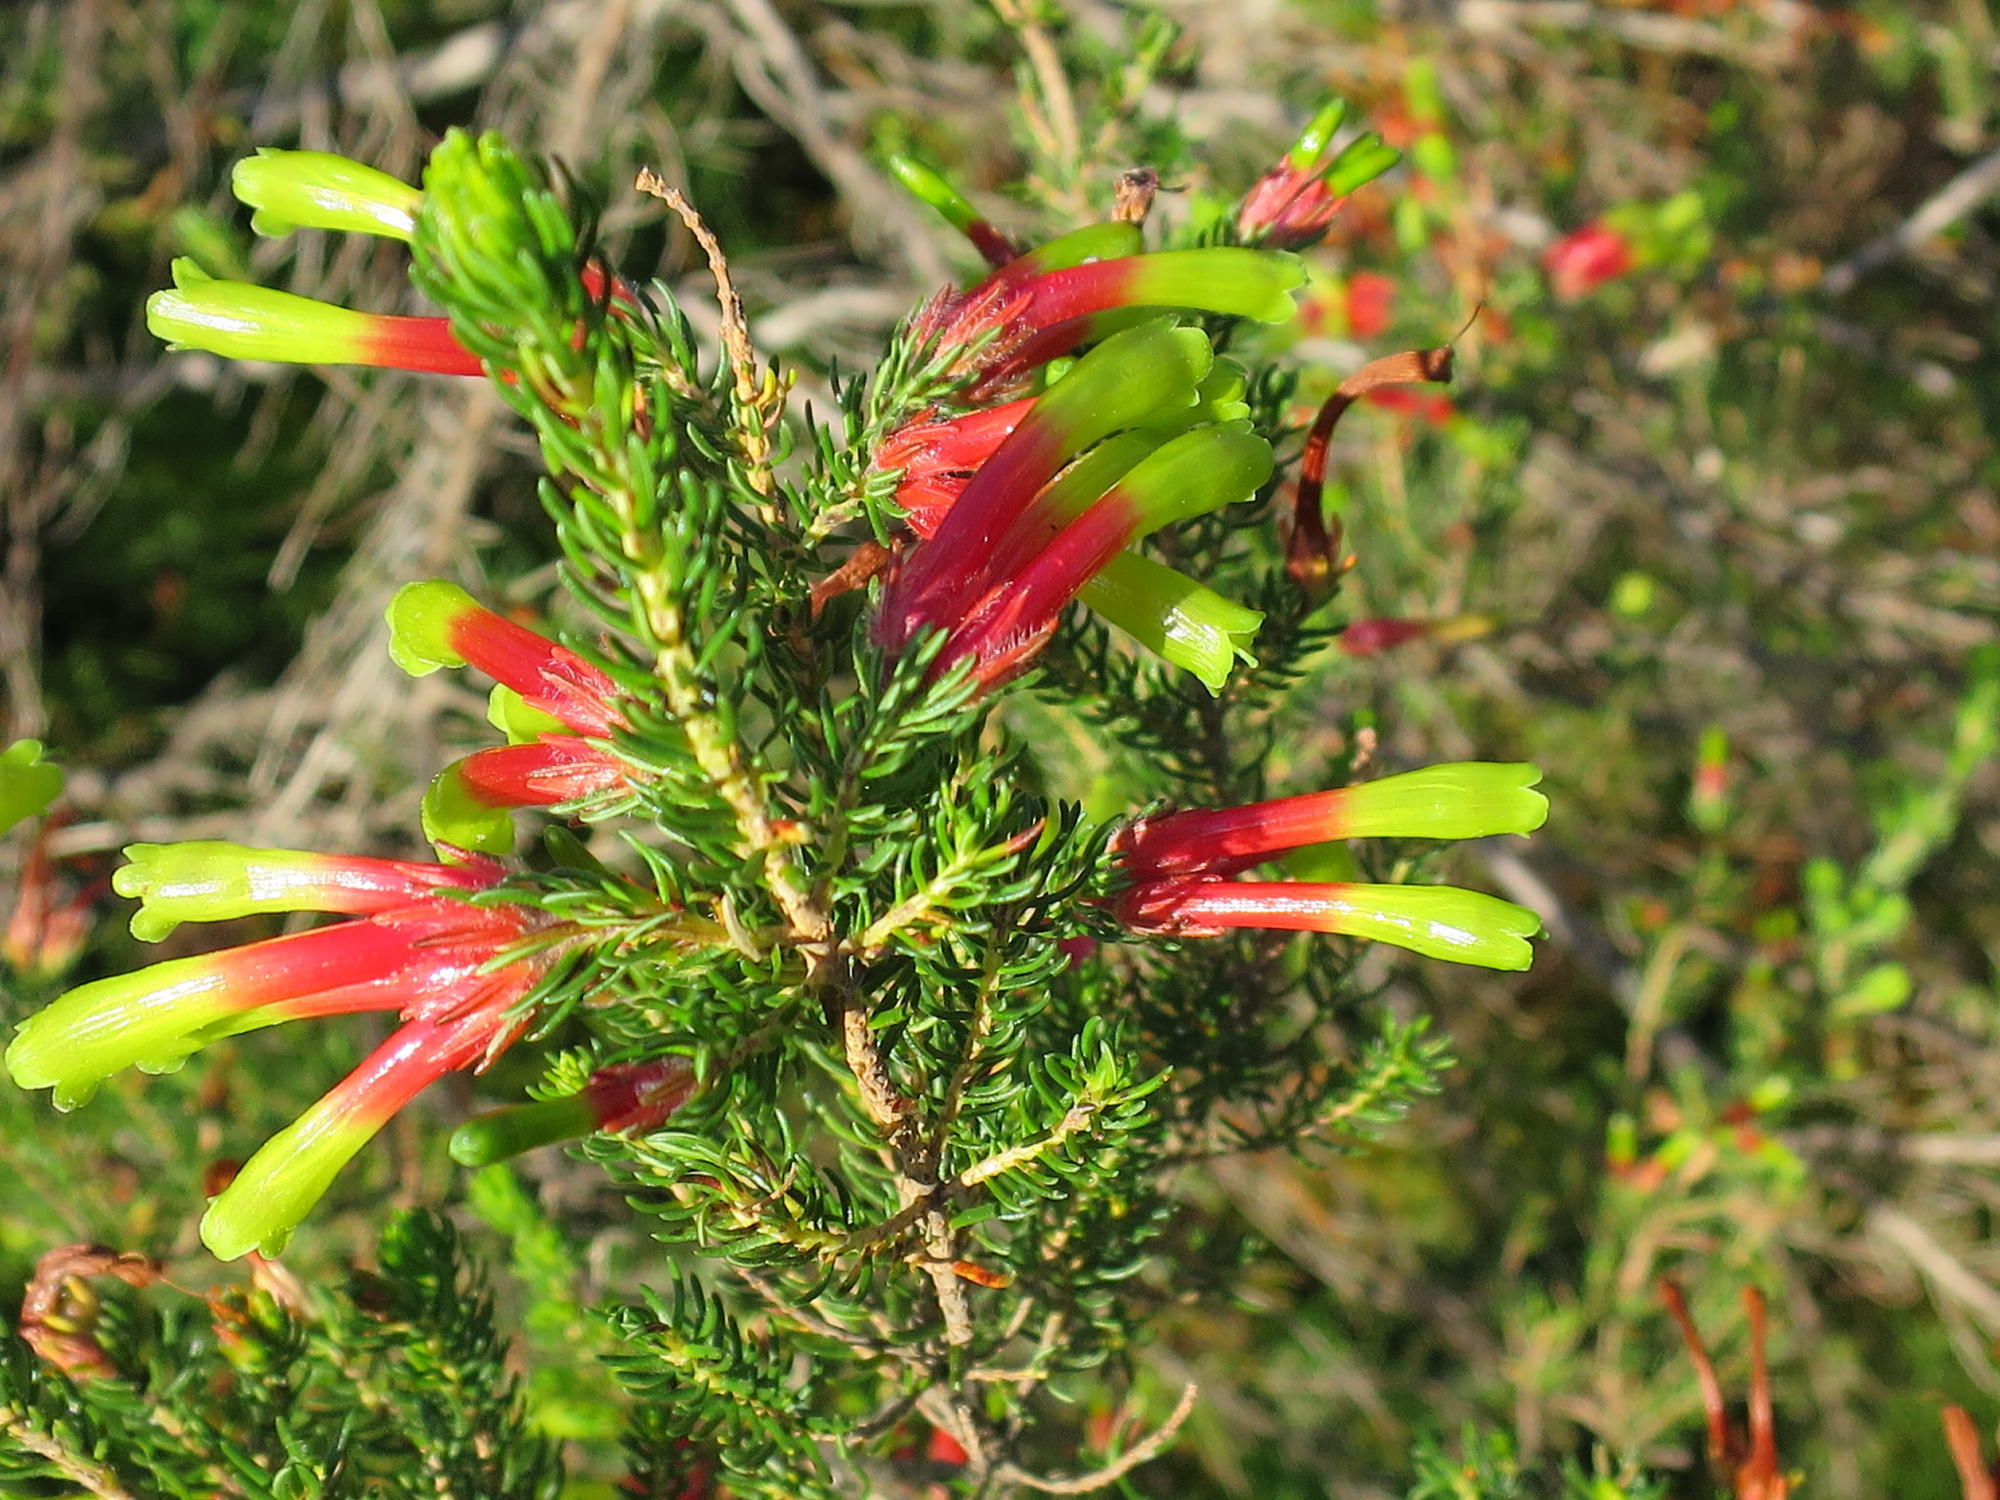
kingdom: Plantae
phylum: Tracheophyta
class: Magnoliopsida
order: Ericales
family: Ericaceae
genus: Erica
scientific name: Erica unicolor
